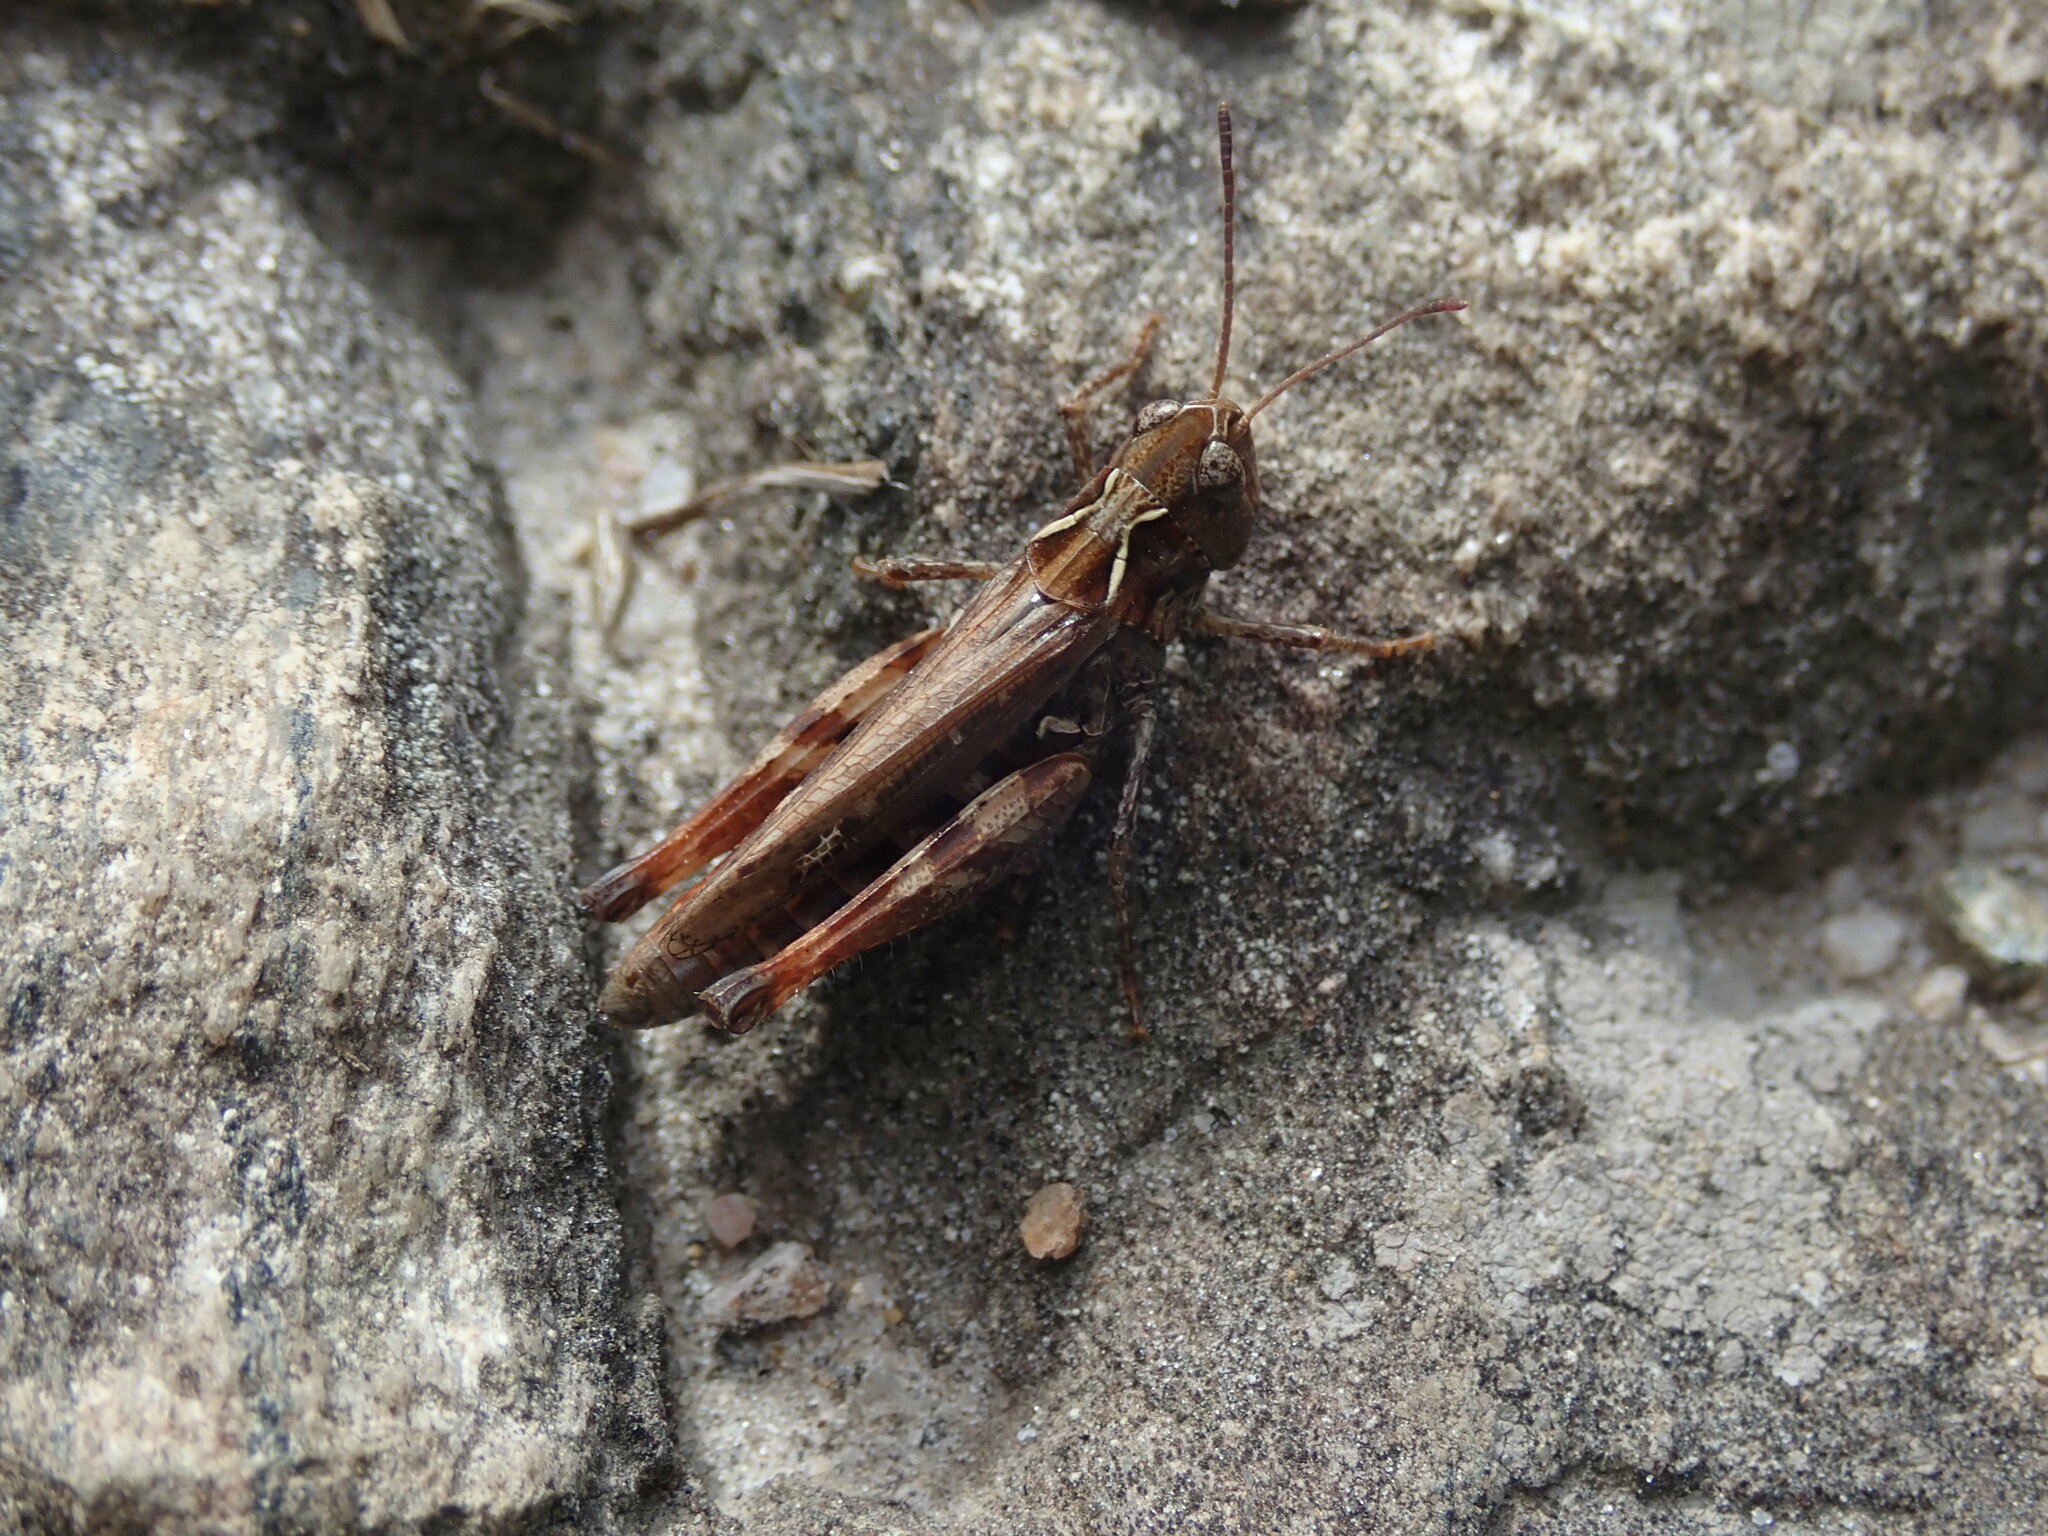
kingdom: Animalia
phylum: Arthropoda
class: Insecta
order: Orthoptera
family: Acrididae
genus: Myrmeleotettix
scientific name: Myrmeleotettix maculatus
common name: Mottled grasshopper
